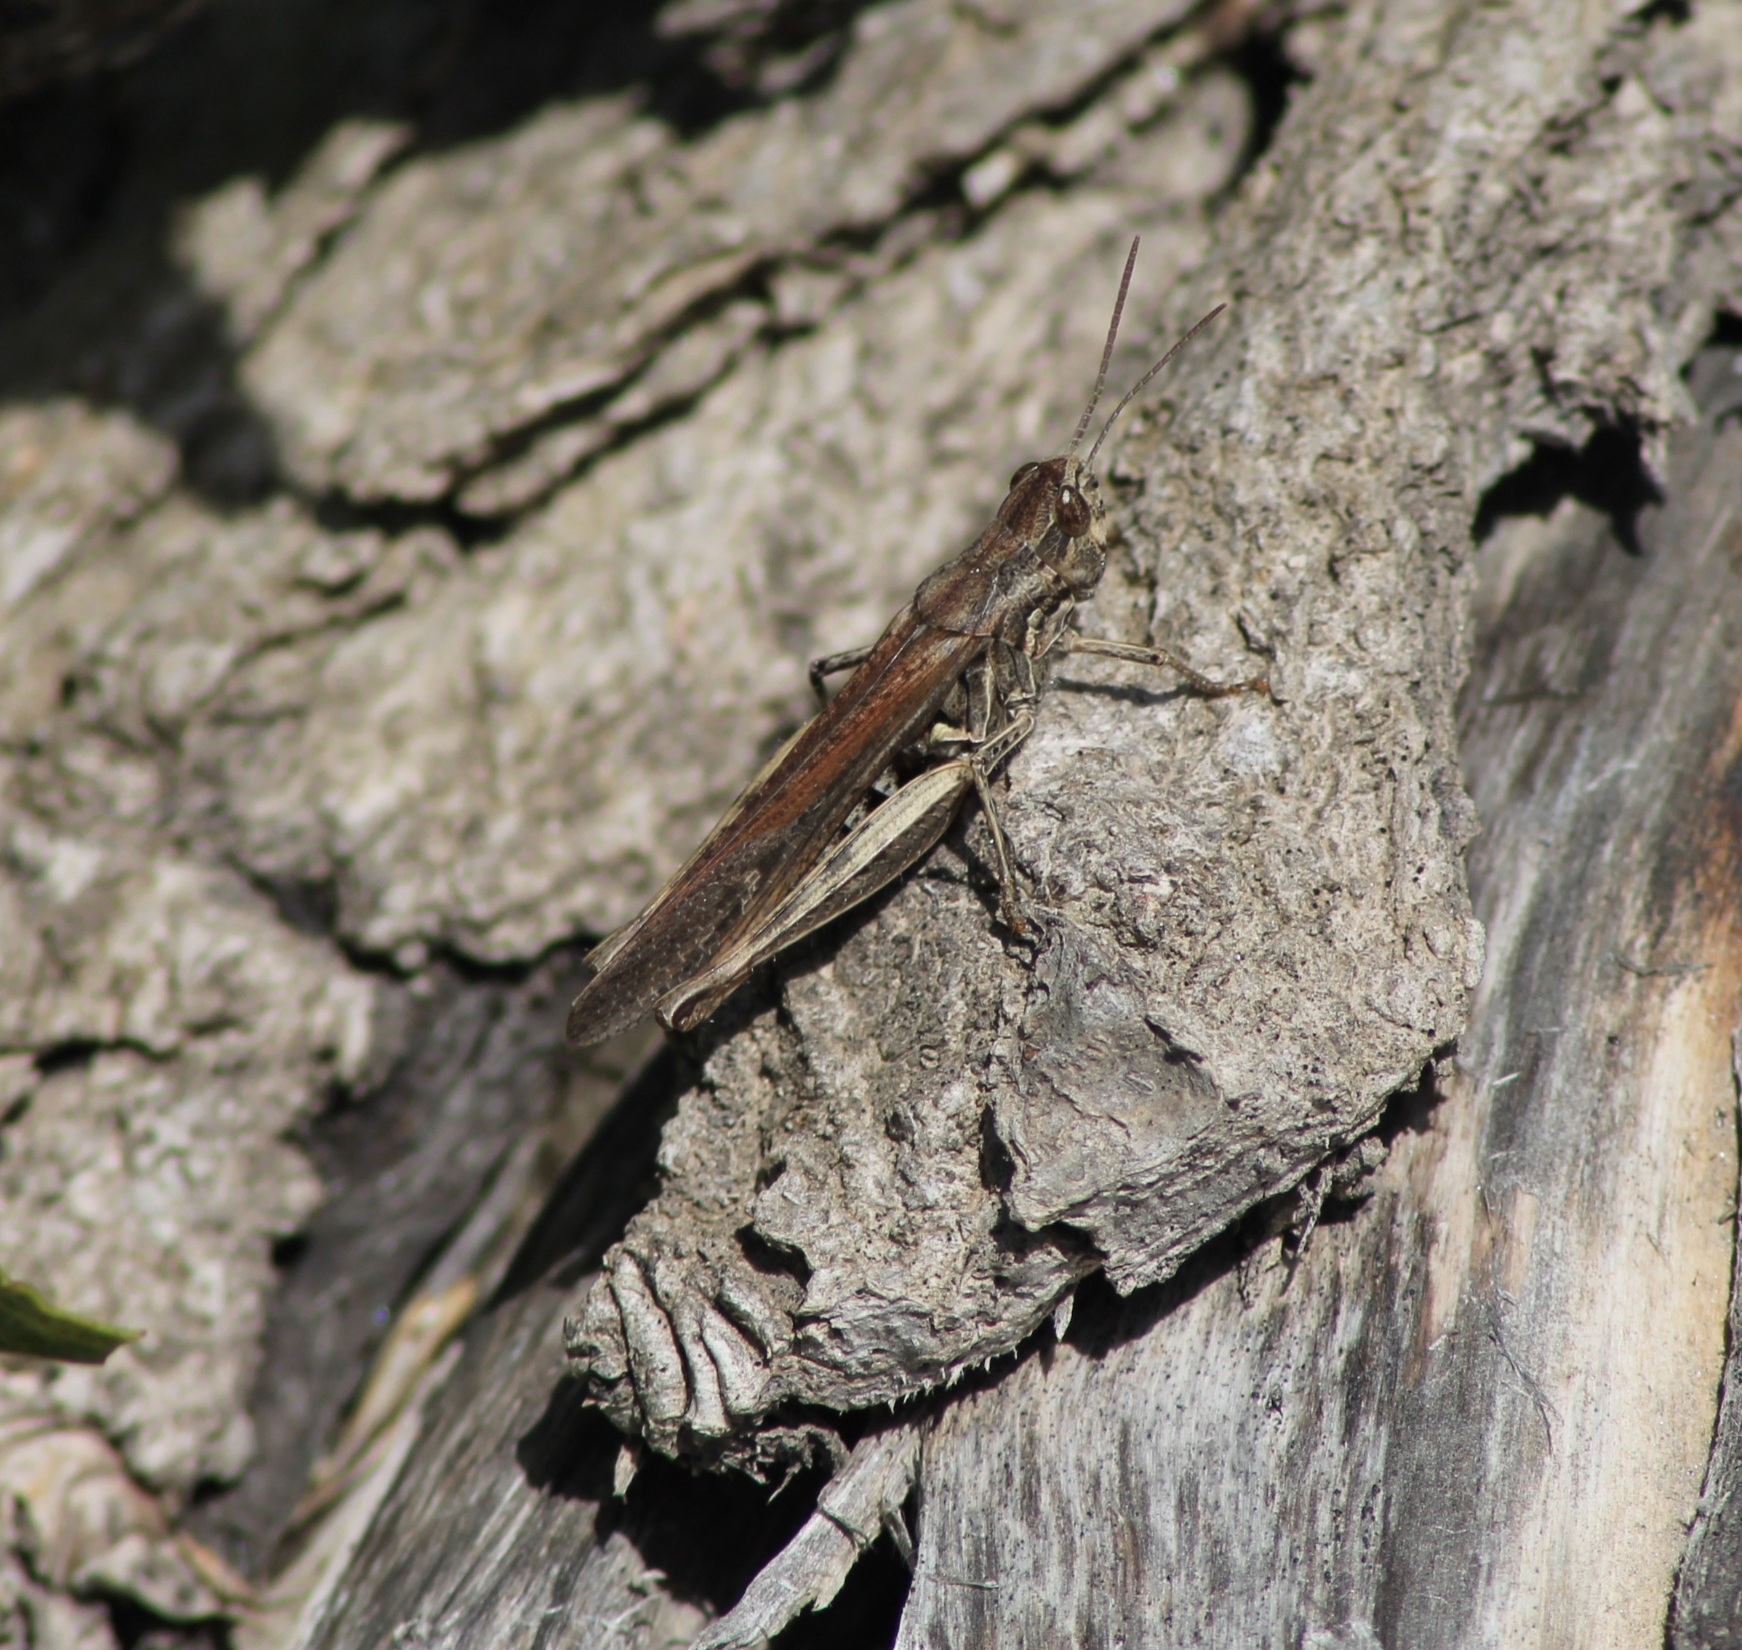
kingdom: Animalia
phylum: Arthropoda
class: Insecta
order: Orthoptera
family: Acrididae
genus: Chorthippus
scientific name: Chorthippus brunneus
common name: Field grasshopper
